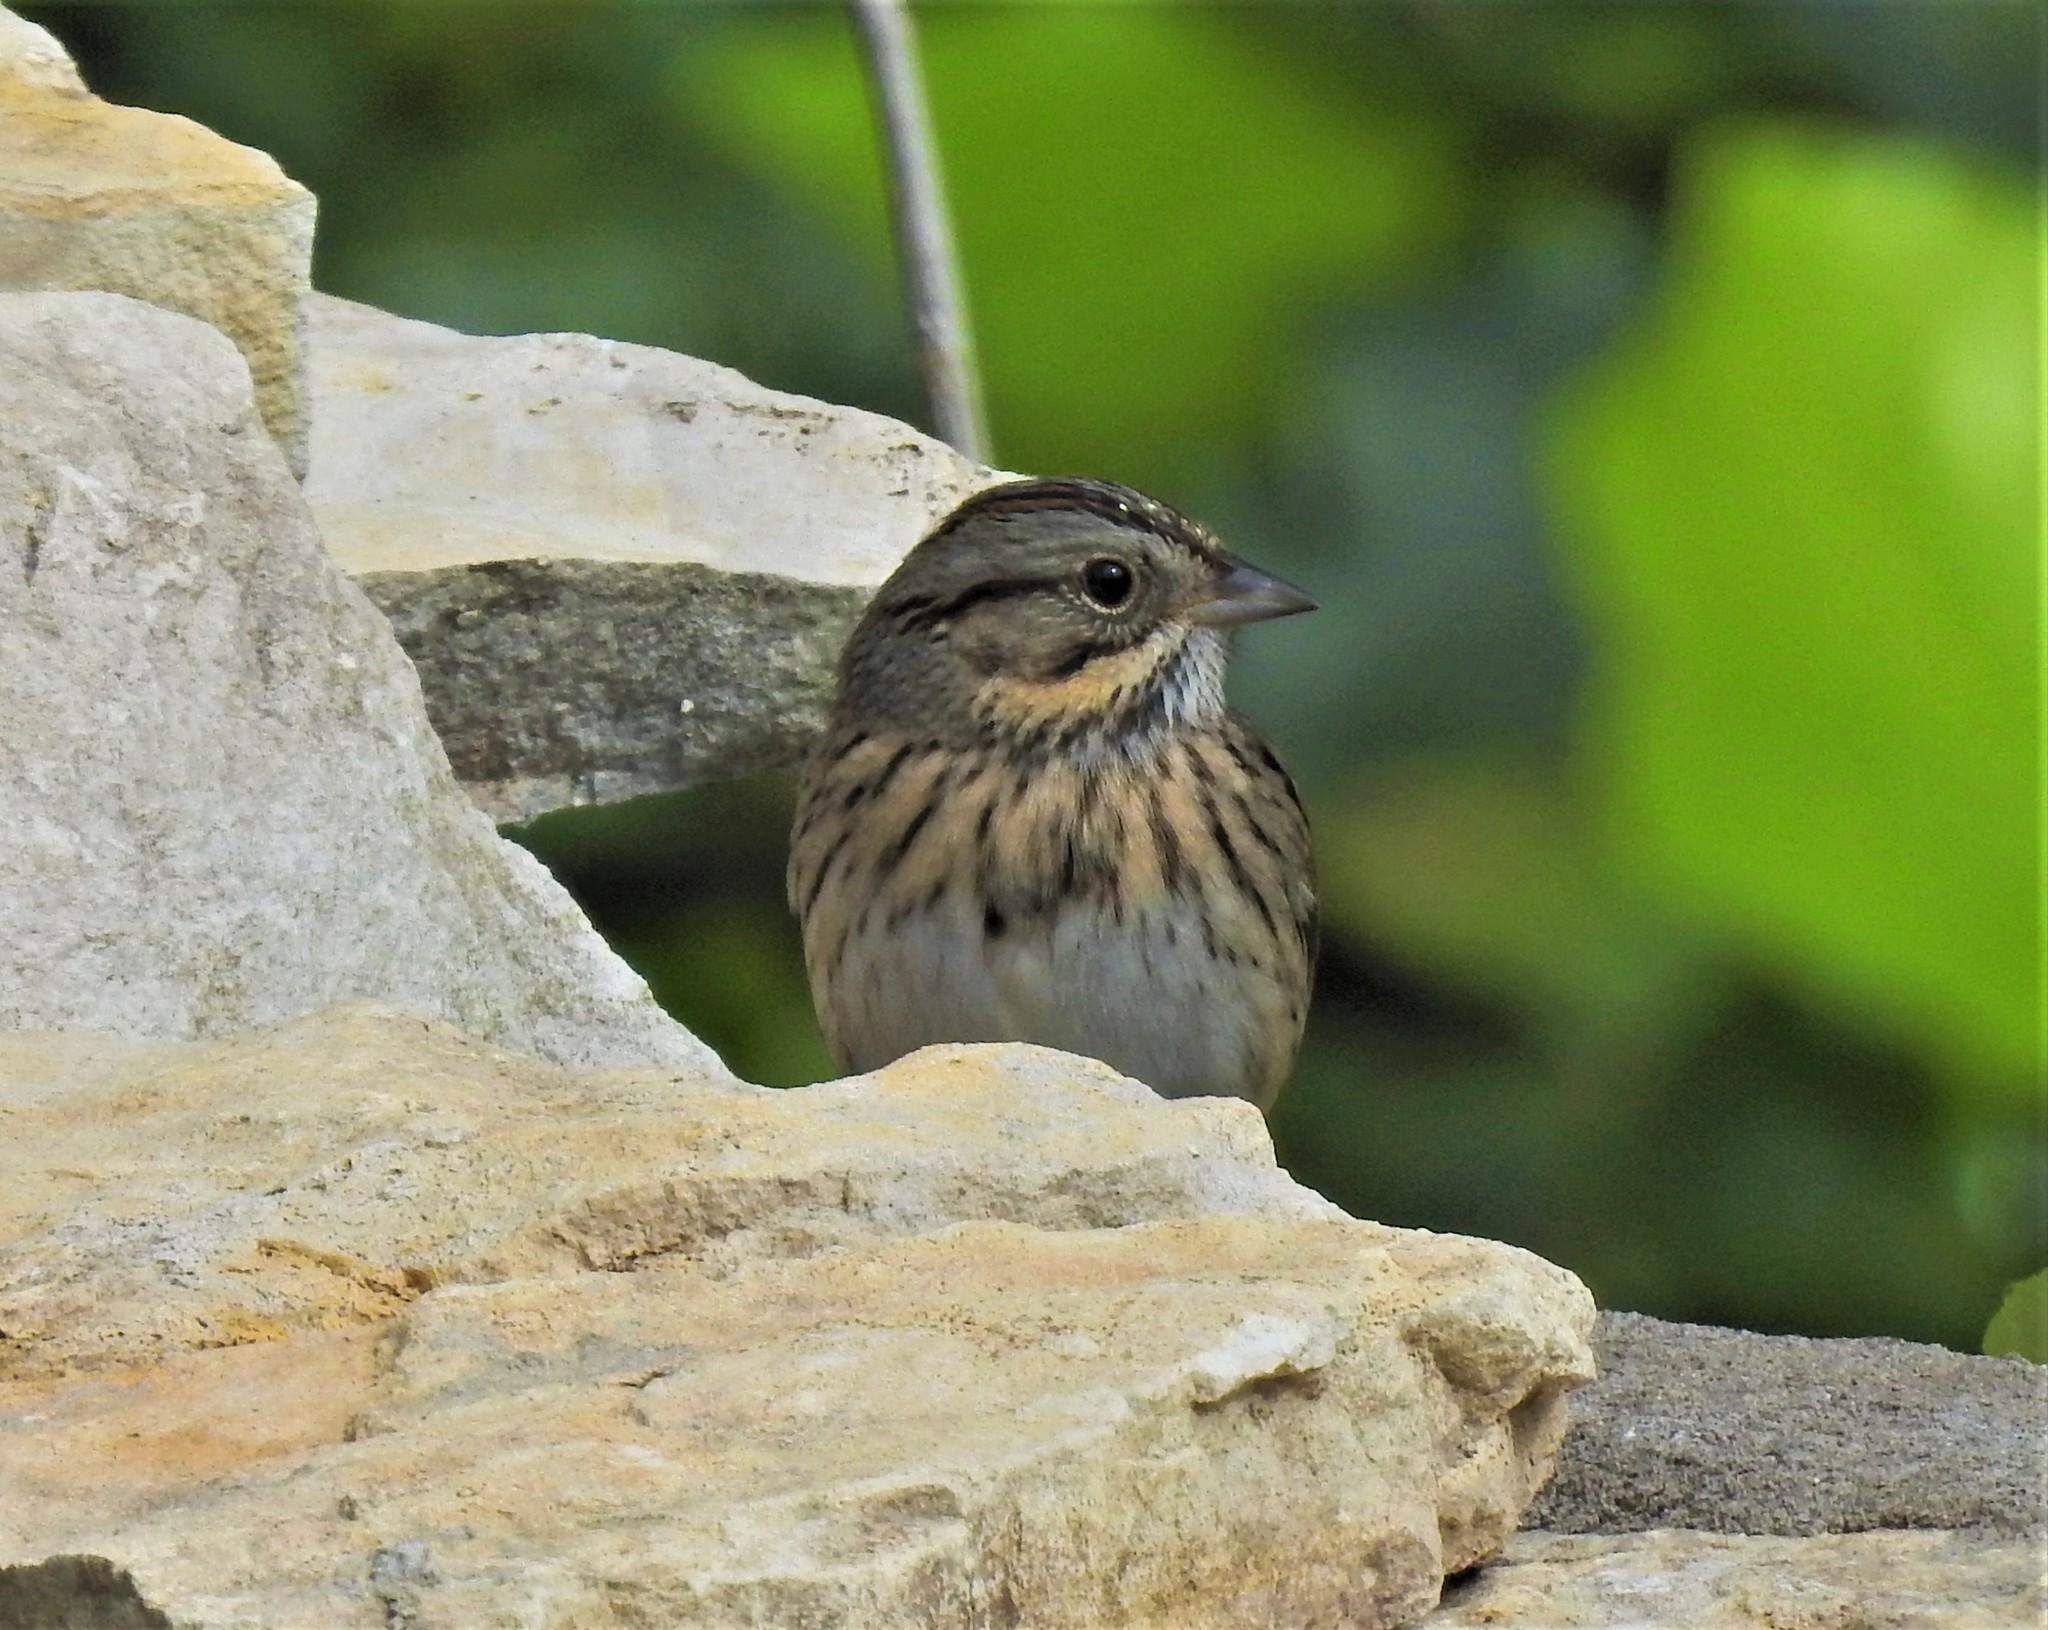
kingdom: Animalia
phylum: Chordata
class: Aves
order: Passeriformes
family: Passerellidae
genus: Melospiza
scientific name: Melospiza lincolnii
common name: Lincoln's sparrow
